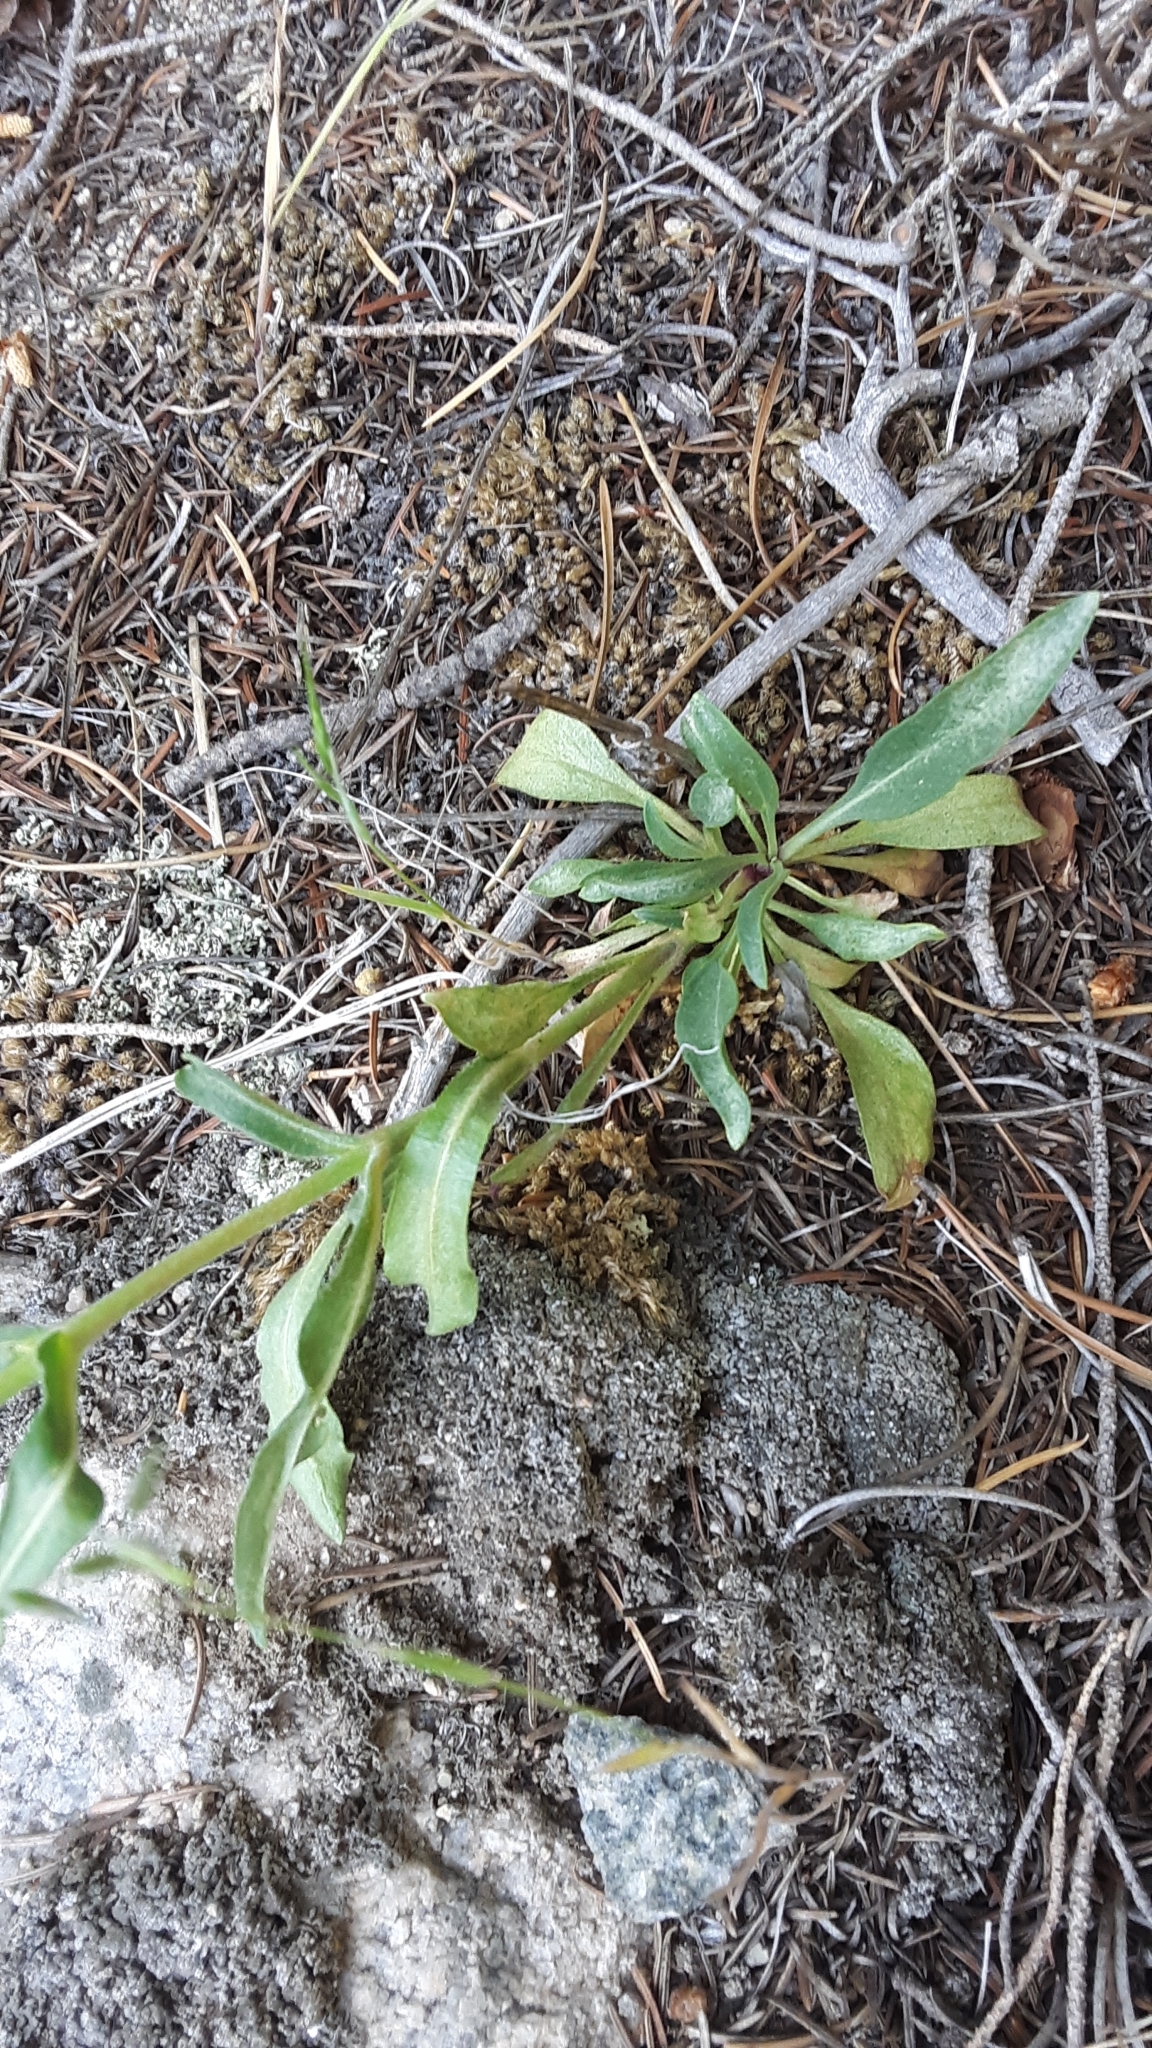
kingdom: Plantae
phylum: Tracheophyta
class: Magnoliopsida
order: Lamiales
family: Plantaginaceae
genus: Penstemon
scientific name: Penstemon eriantherus
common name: Crested beardtongue
